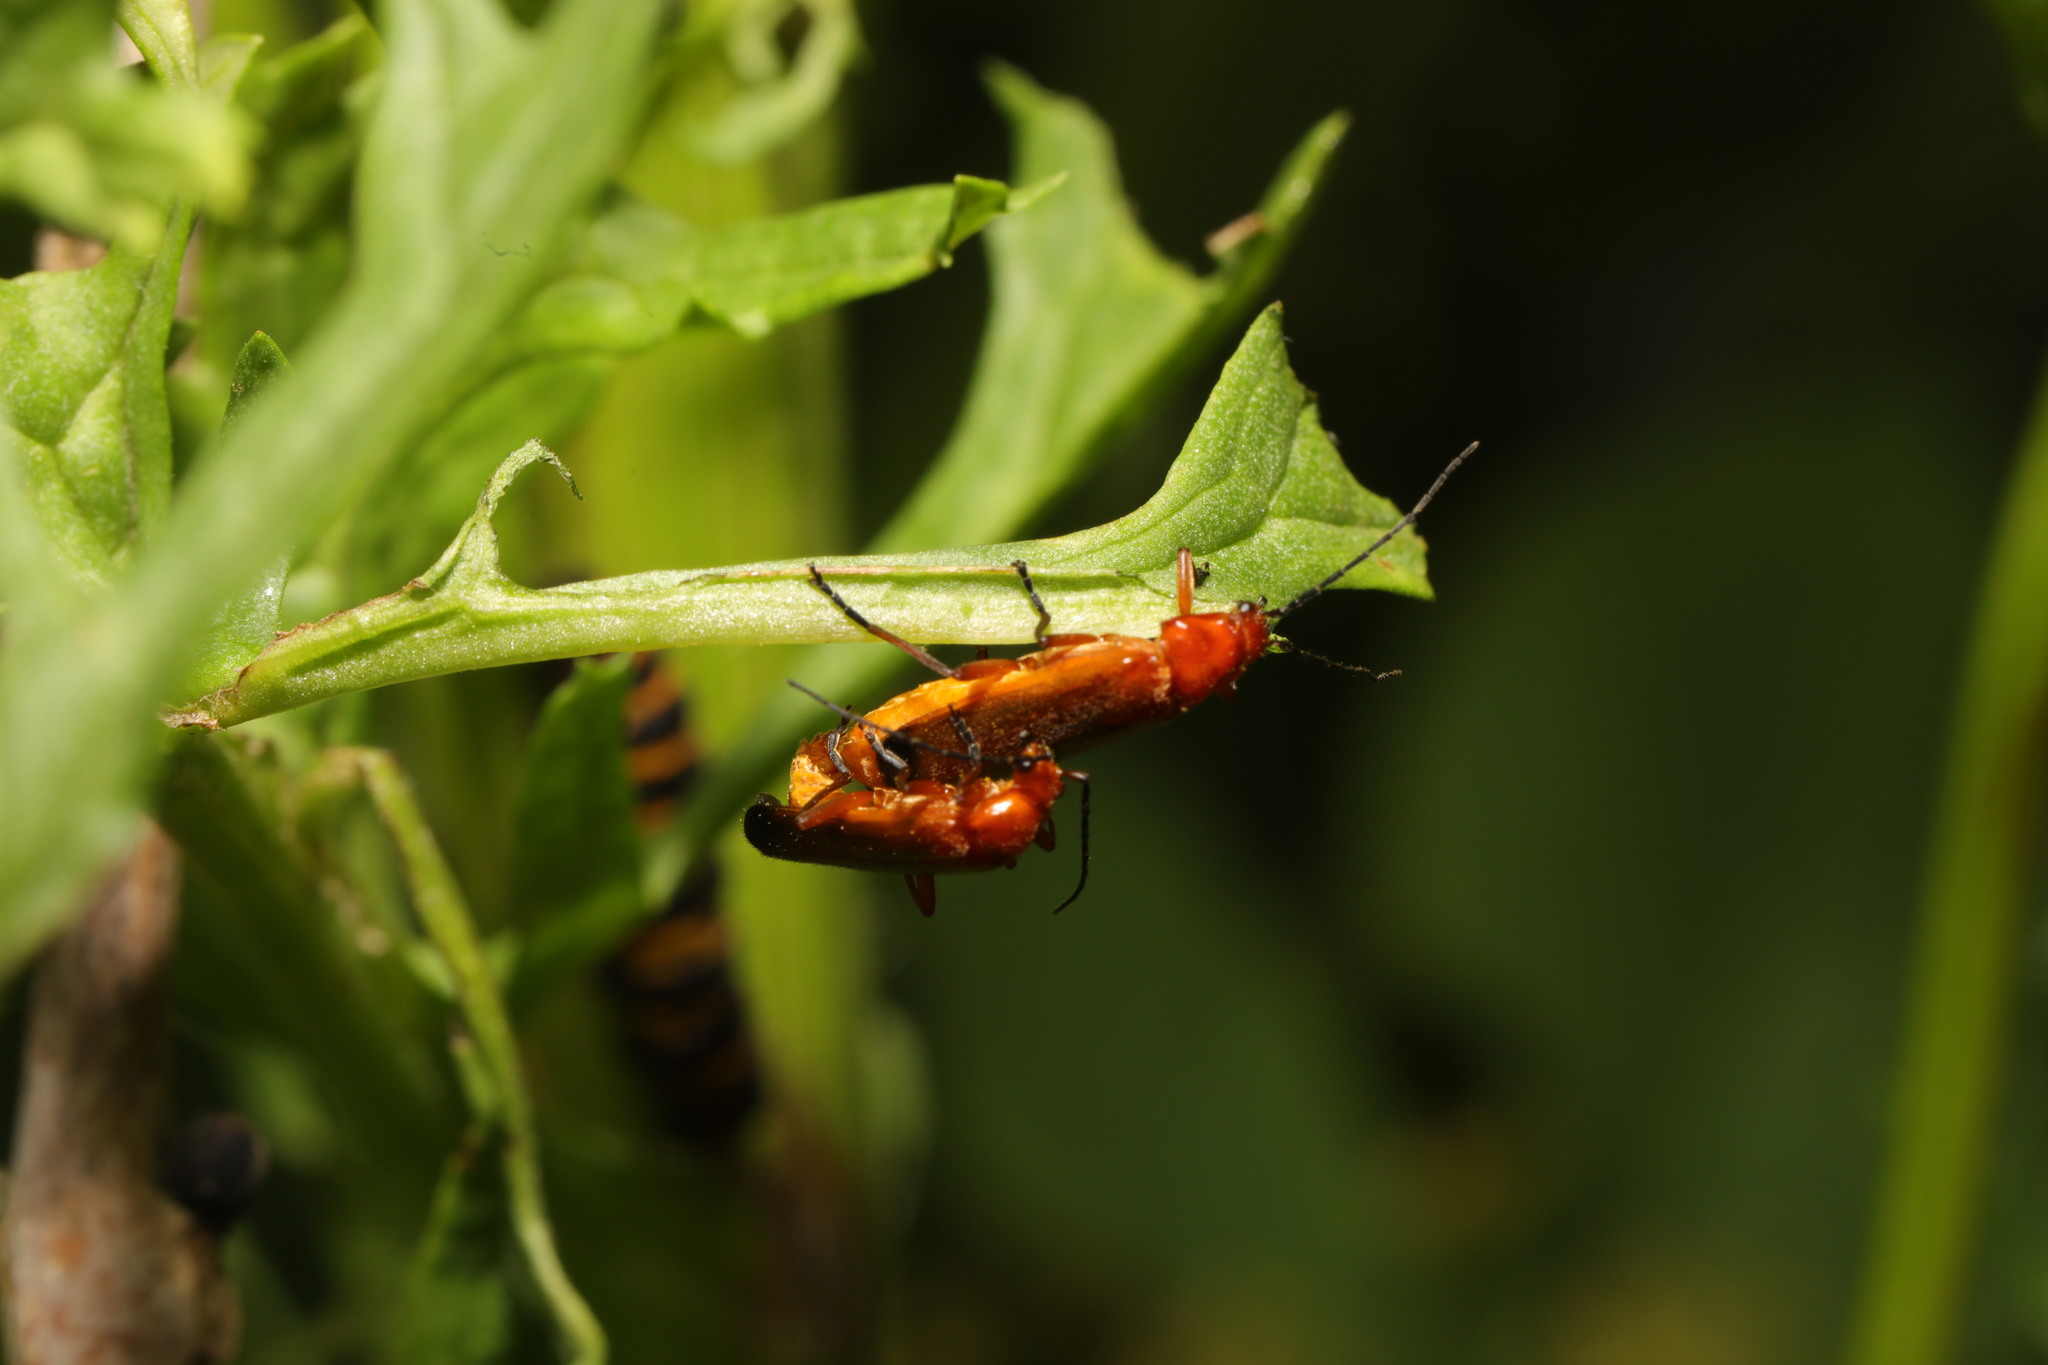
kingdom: Animalia
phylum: Arthropoda
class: Insecta
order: Coleoptera
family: Cantharidae
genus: Rhagonycha
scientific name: Rhagonycha fulva
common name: Common red soldier beetle
